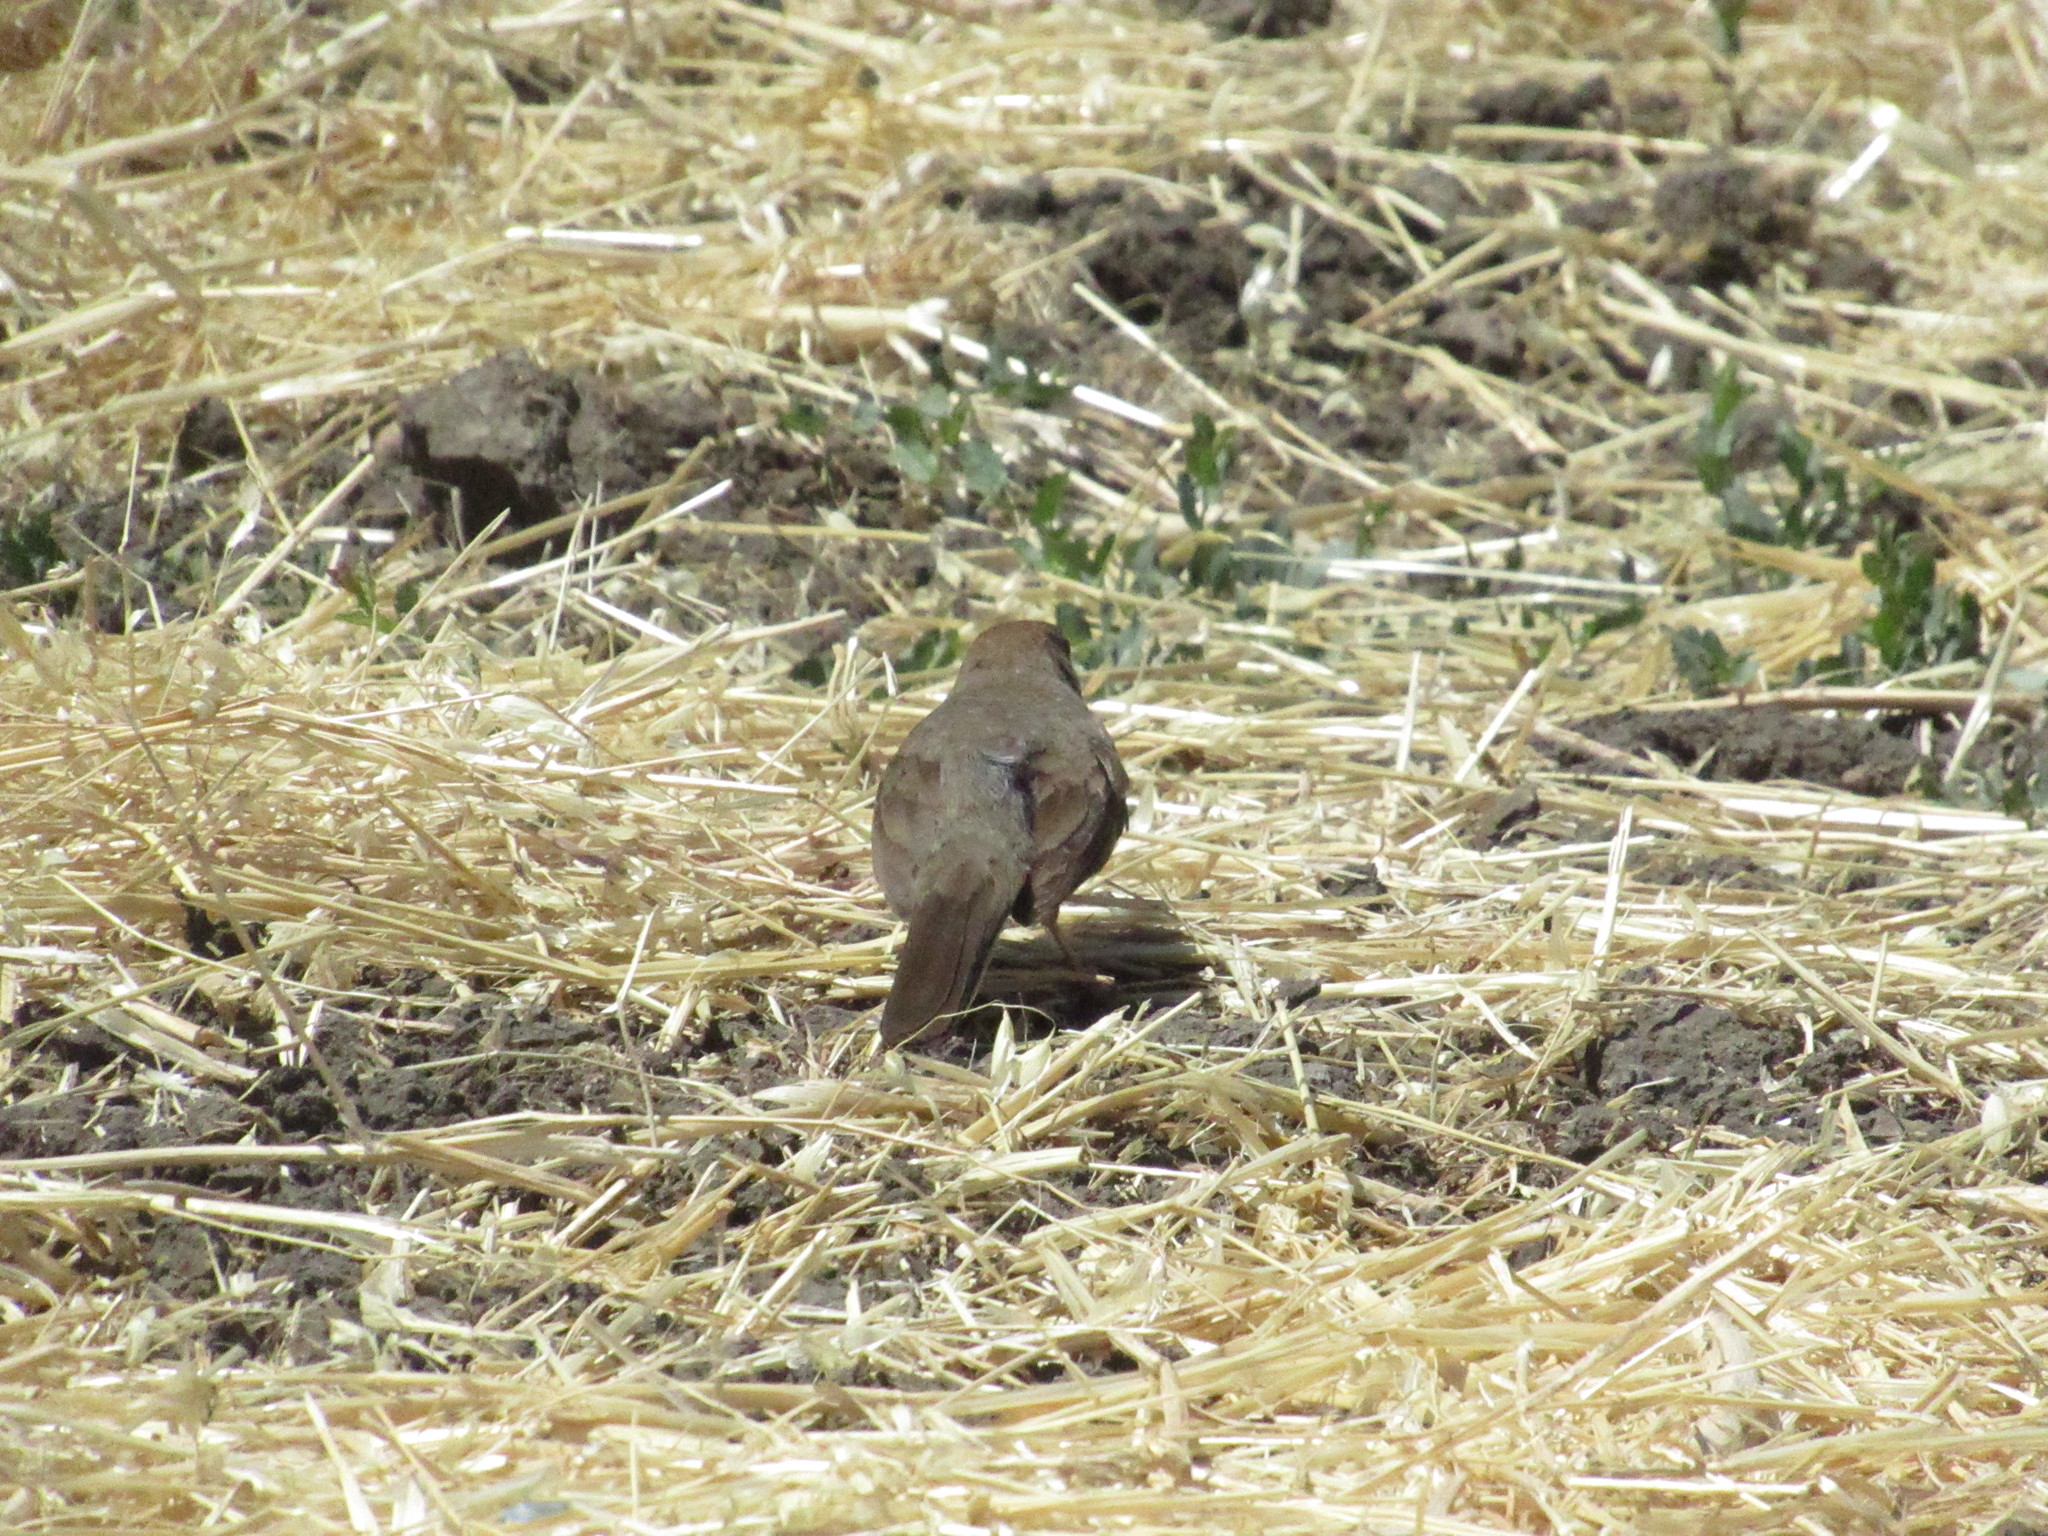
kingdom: Animalia
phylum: Chordata
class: Aves
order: Passeriformes
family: Passerellidae
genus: Melozone
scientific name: Melozone crissalis
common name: California towhee
